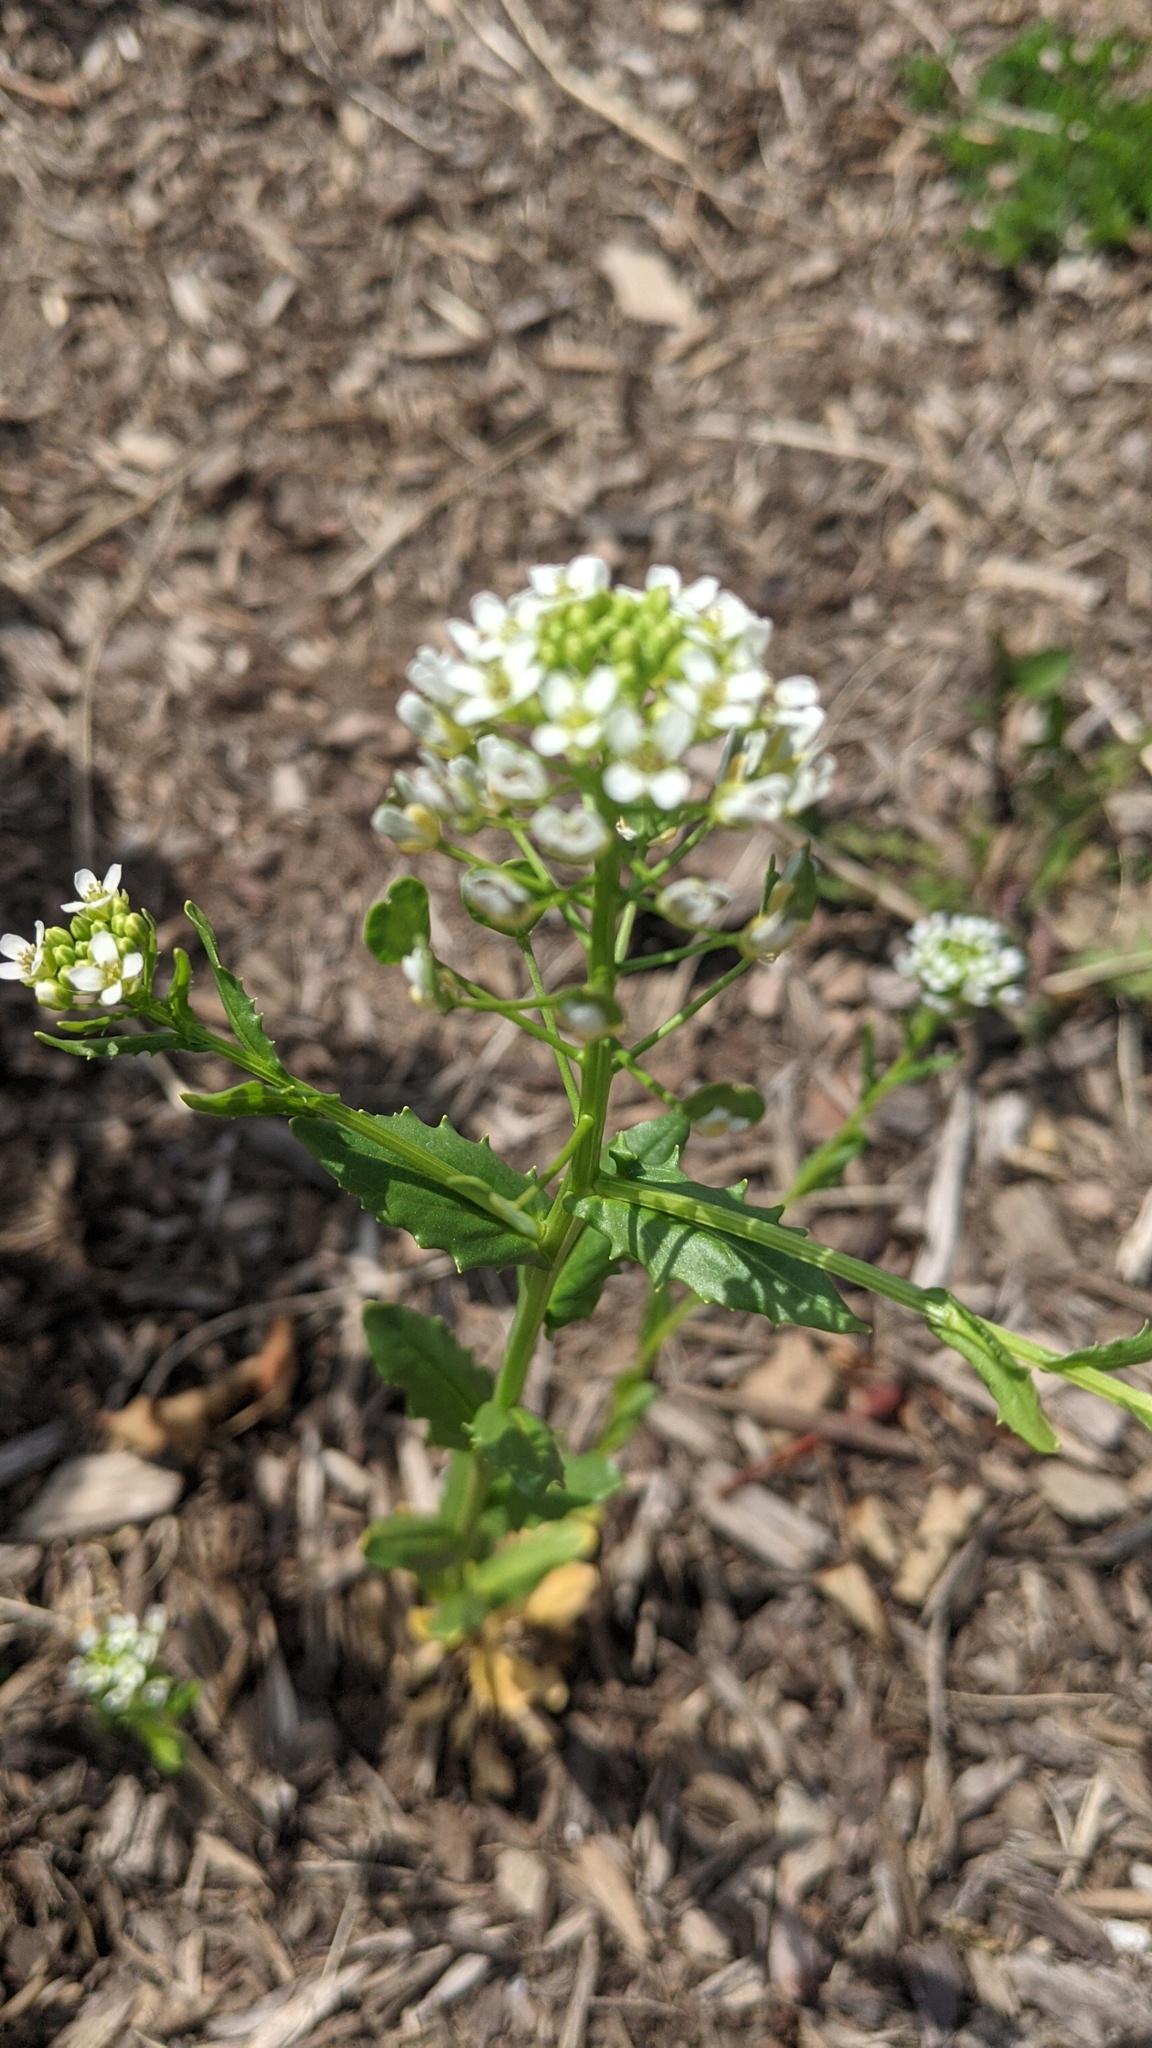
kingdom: Plantae
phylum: Tracheophyta
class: Magnoliopsida
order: Brassicales
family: Brassicaceae
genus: Thlaspi
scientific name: Thlaspi arvense
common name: Field pennycress
